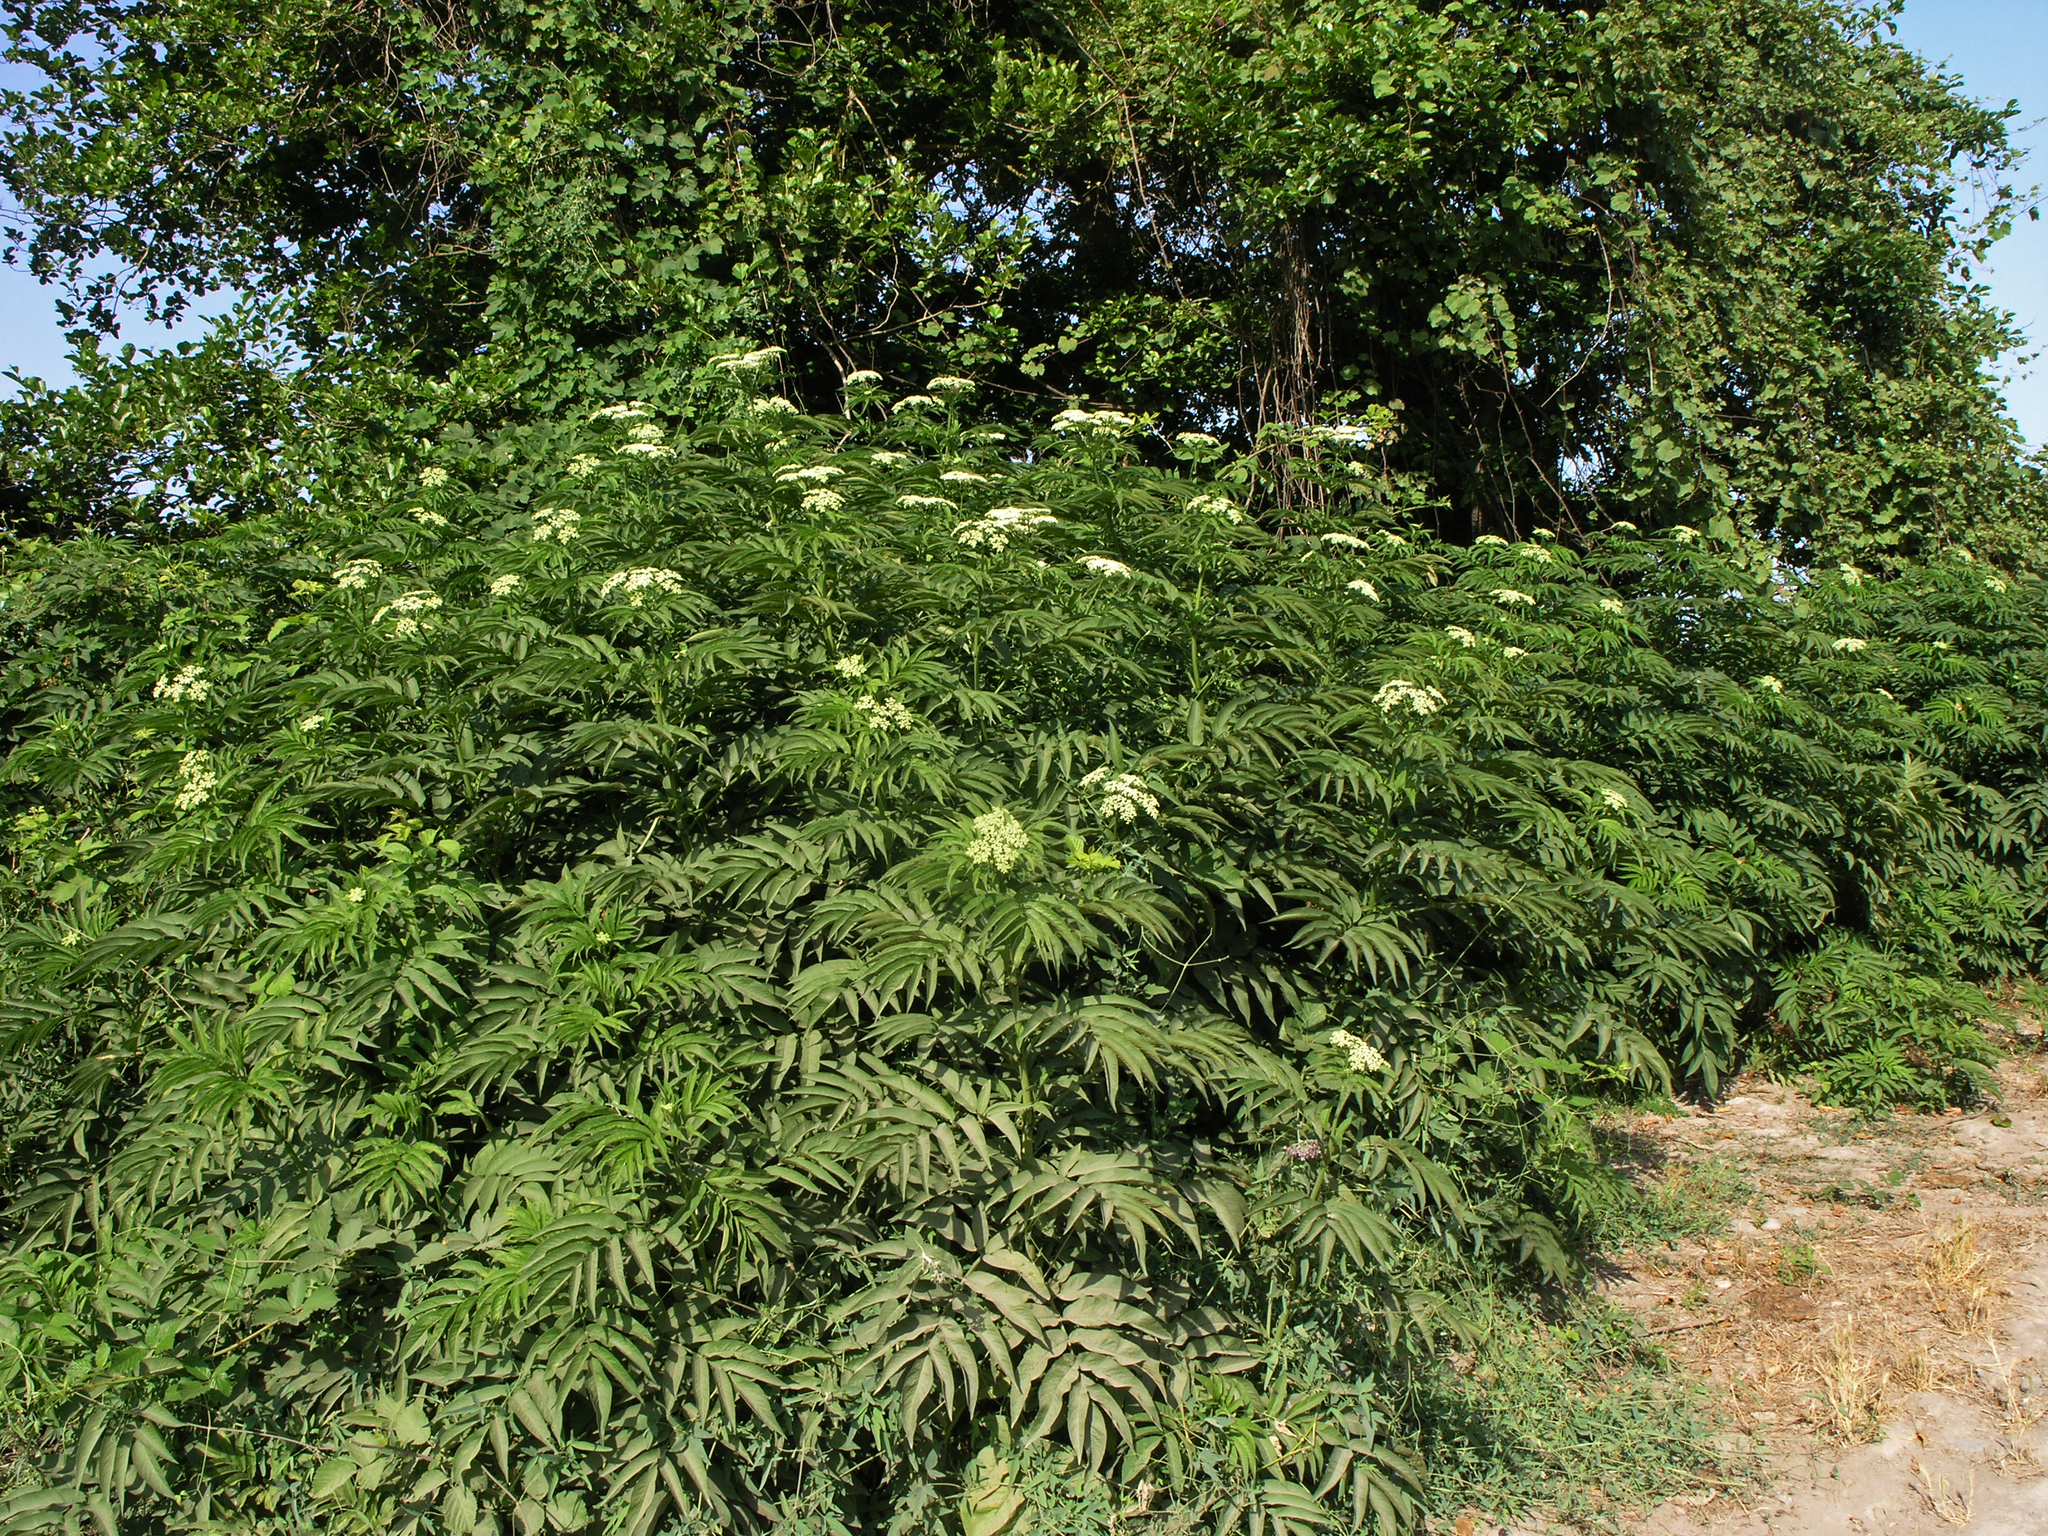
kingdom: Plantae
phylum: Tracheophyta
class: Magnoliopsida
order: Dipsacales
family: Viburnaceae
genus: Sambucus
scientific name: Sambucus ebulus
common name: Dwarf elder
